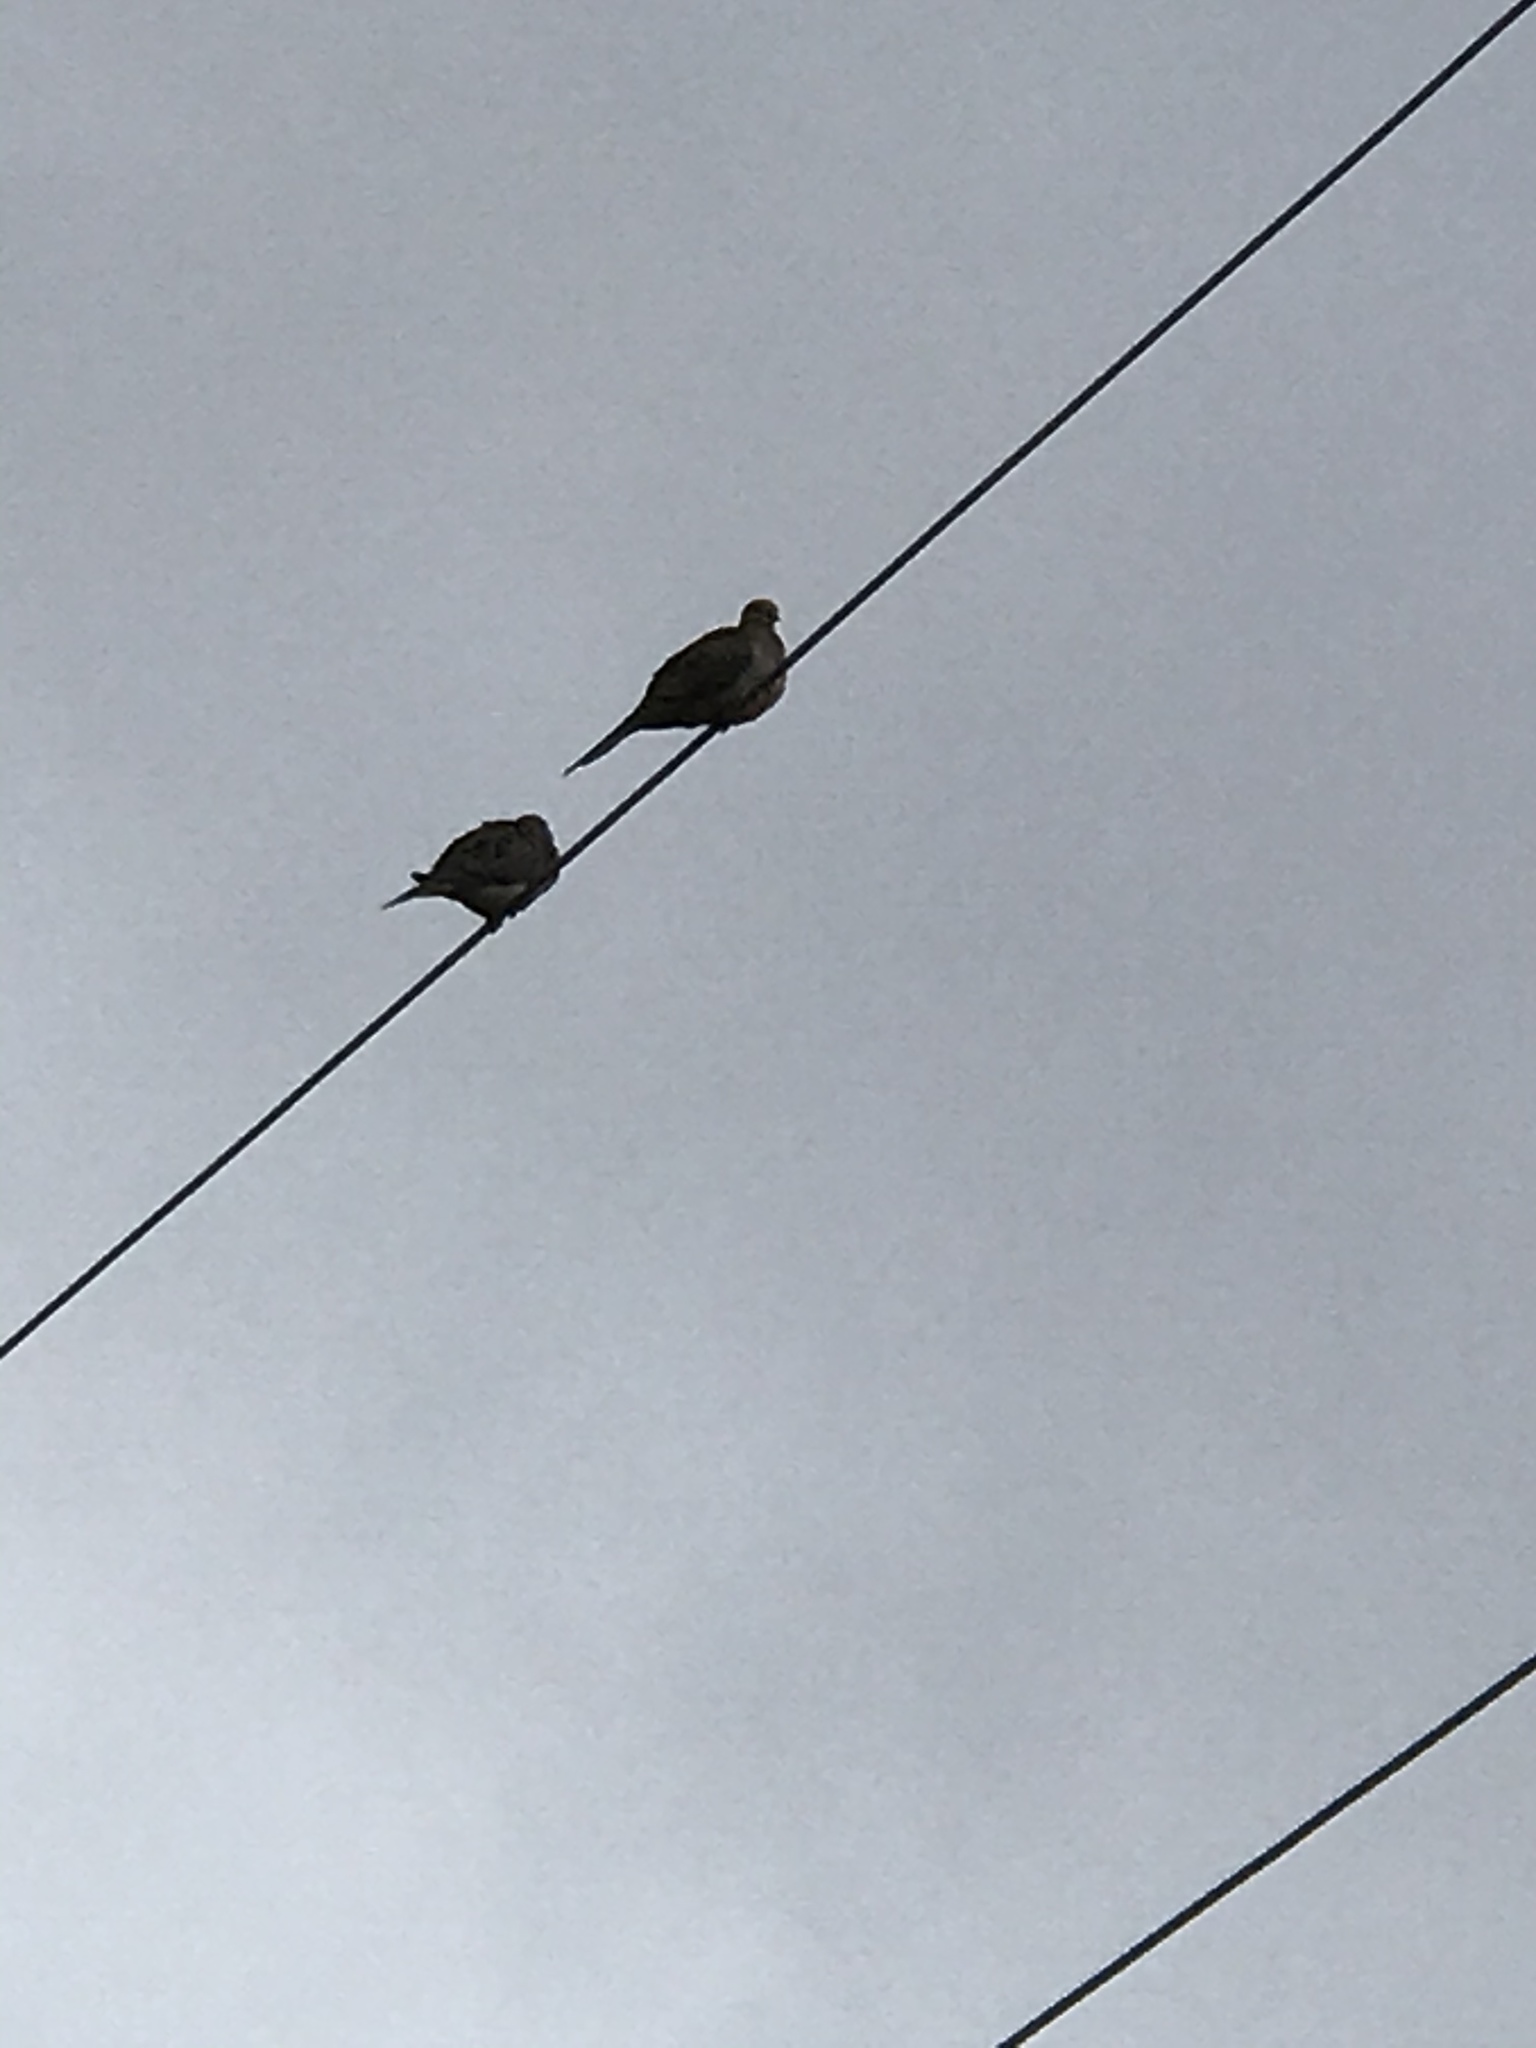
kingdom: Animalia
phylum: Chordata
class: Aves
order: Columbiformes
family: Columbidae
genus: Zenaida
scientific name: Zenaida macroura
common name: Mourning dove
